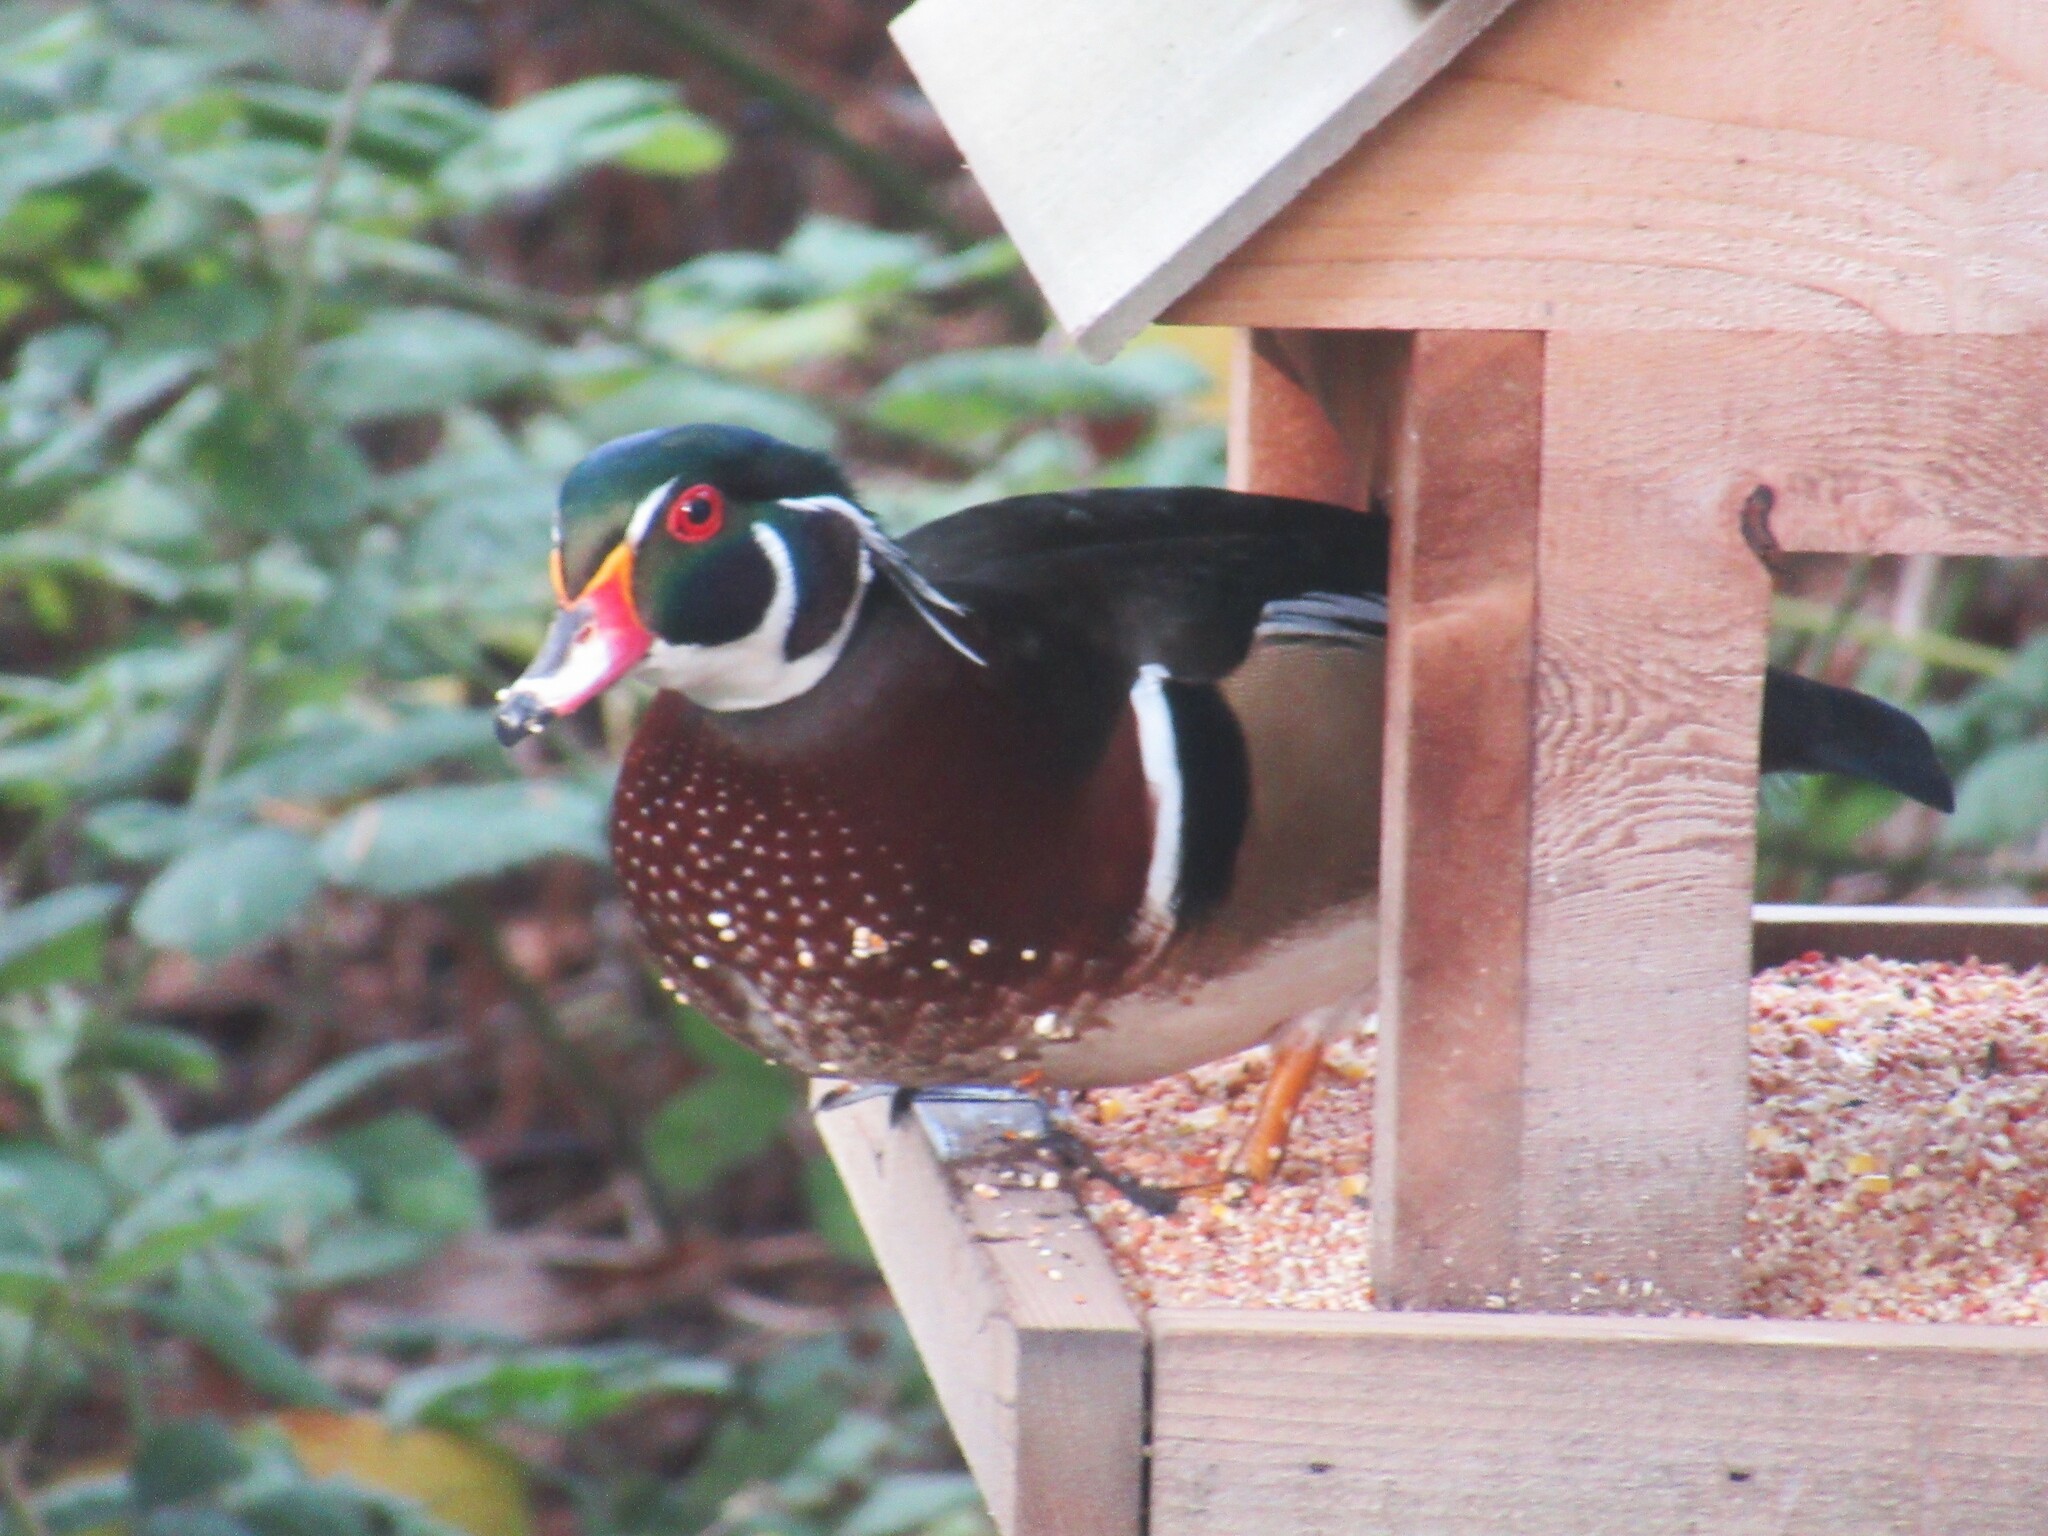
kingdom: Animalia
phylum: Chordata
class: Aves
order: Anseriformes
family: Anatidae
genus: Aix
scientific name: Aix sponsa
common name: Wood duck
